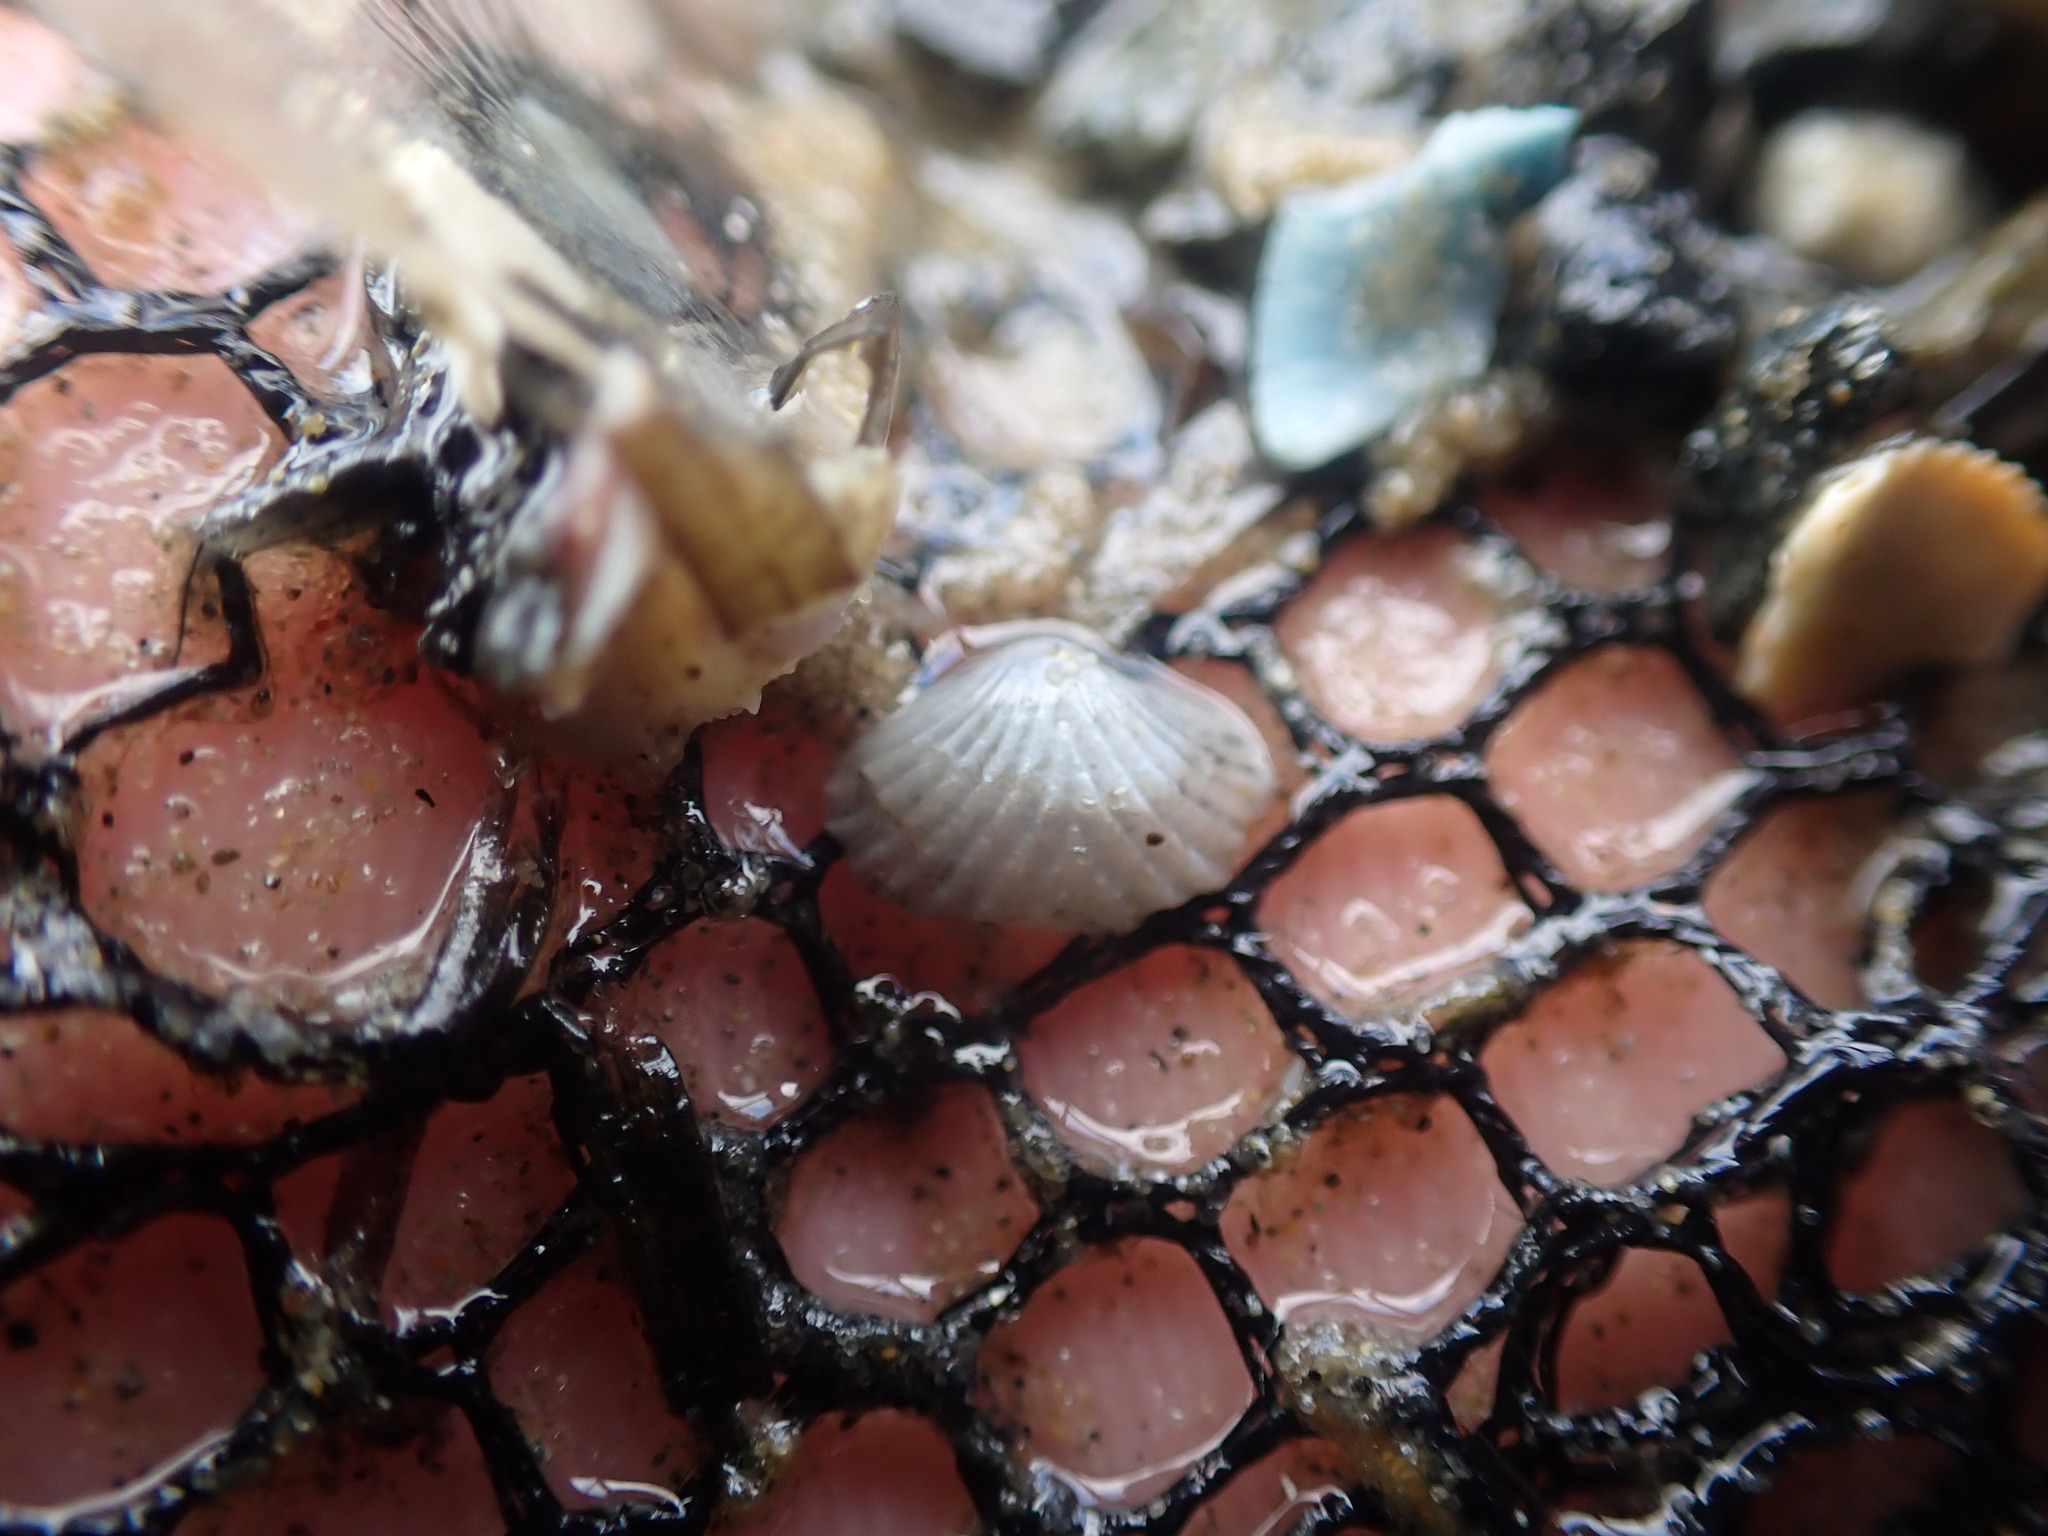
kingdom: Animalia
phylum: Mollusca
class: Bivalvia
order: Galeommatida
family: Lasaeidae
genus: Myllita
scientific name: Myllita stowei
